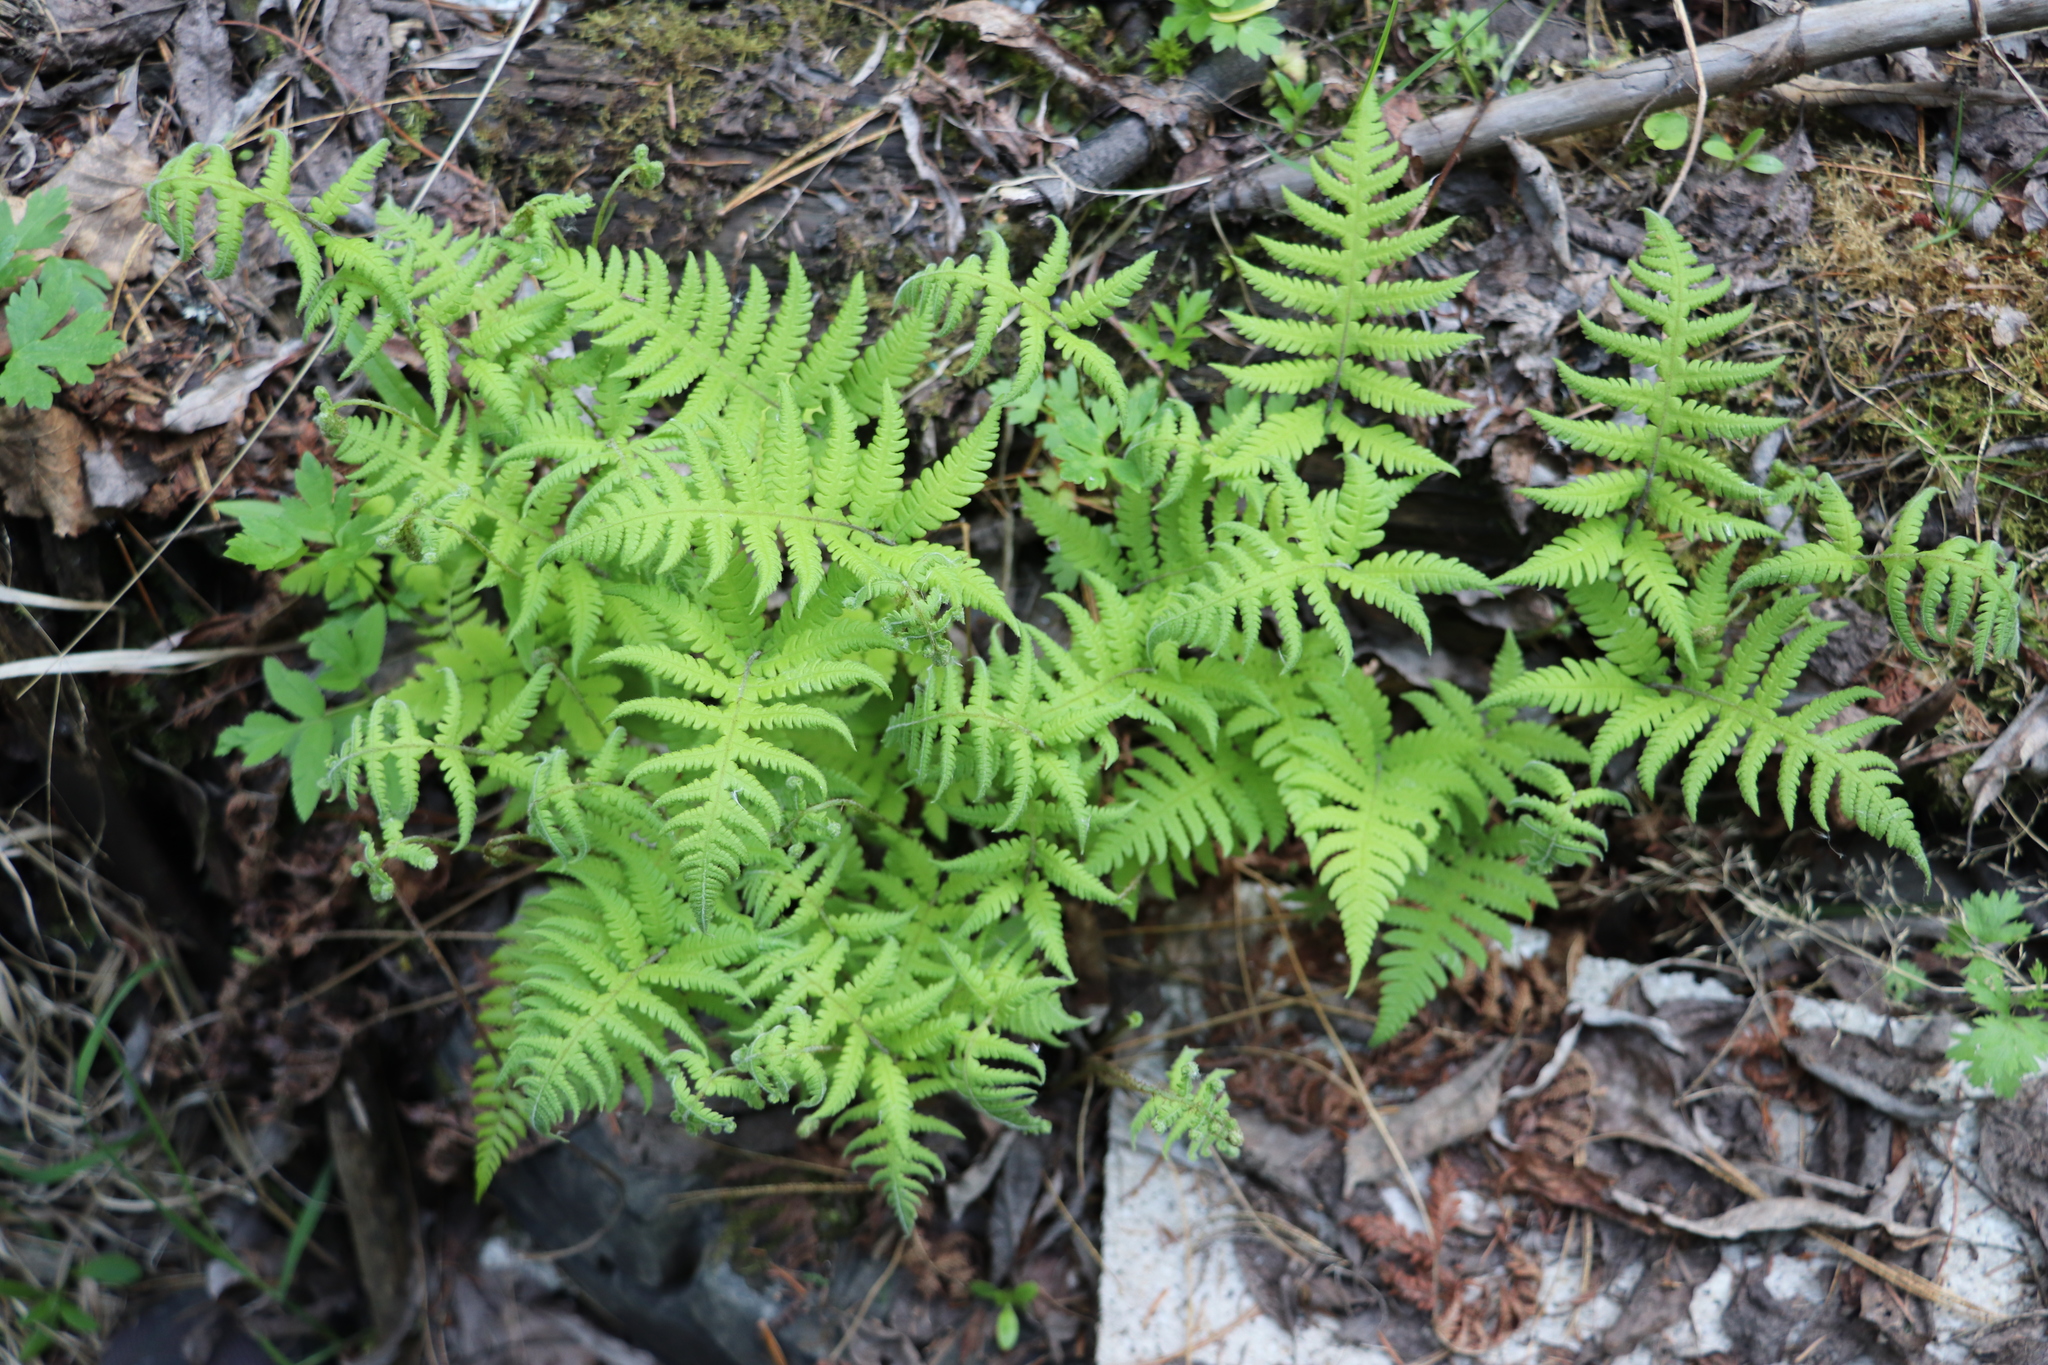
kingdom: Plantae
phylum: Tracheophyta
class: Polypodiopsida
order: Polypodiales
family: Thelypteridaceae
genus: Phegopteris
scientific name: Phegopteris connectilis
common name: Beech fern
